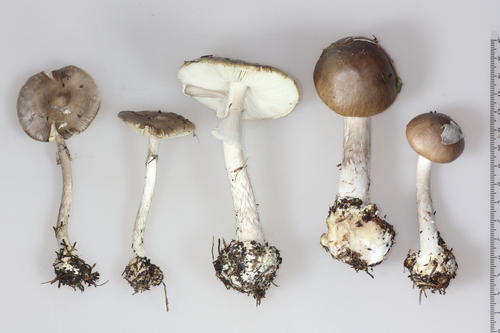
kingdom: Fungi
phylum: Basidiomycota
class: Agaricomycetes
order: Agaricales
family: Amanitaceae
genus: Amanita
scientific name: Amanita porphyria
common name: Grey veiled amanita
